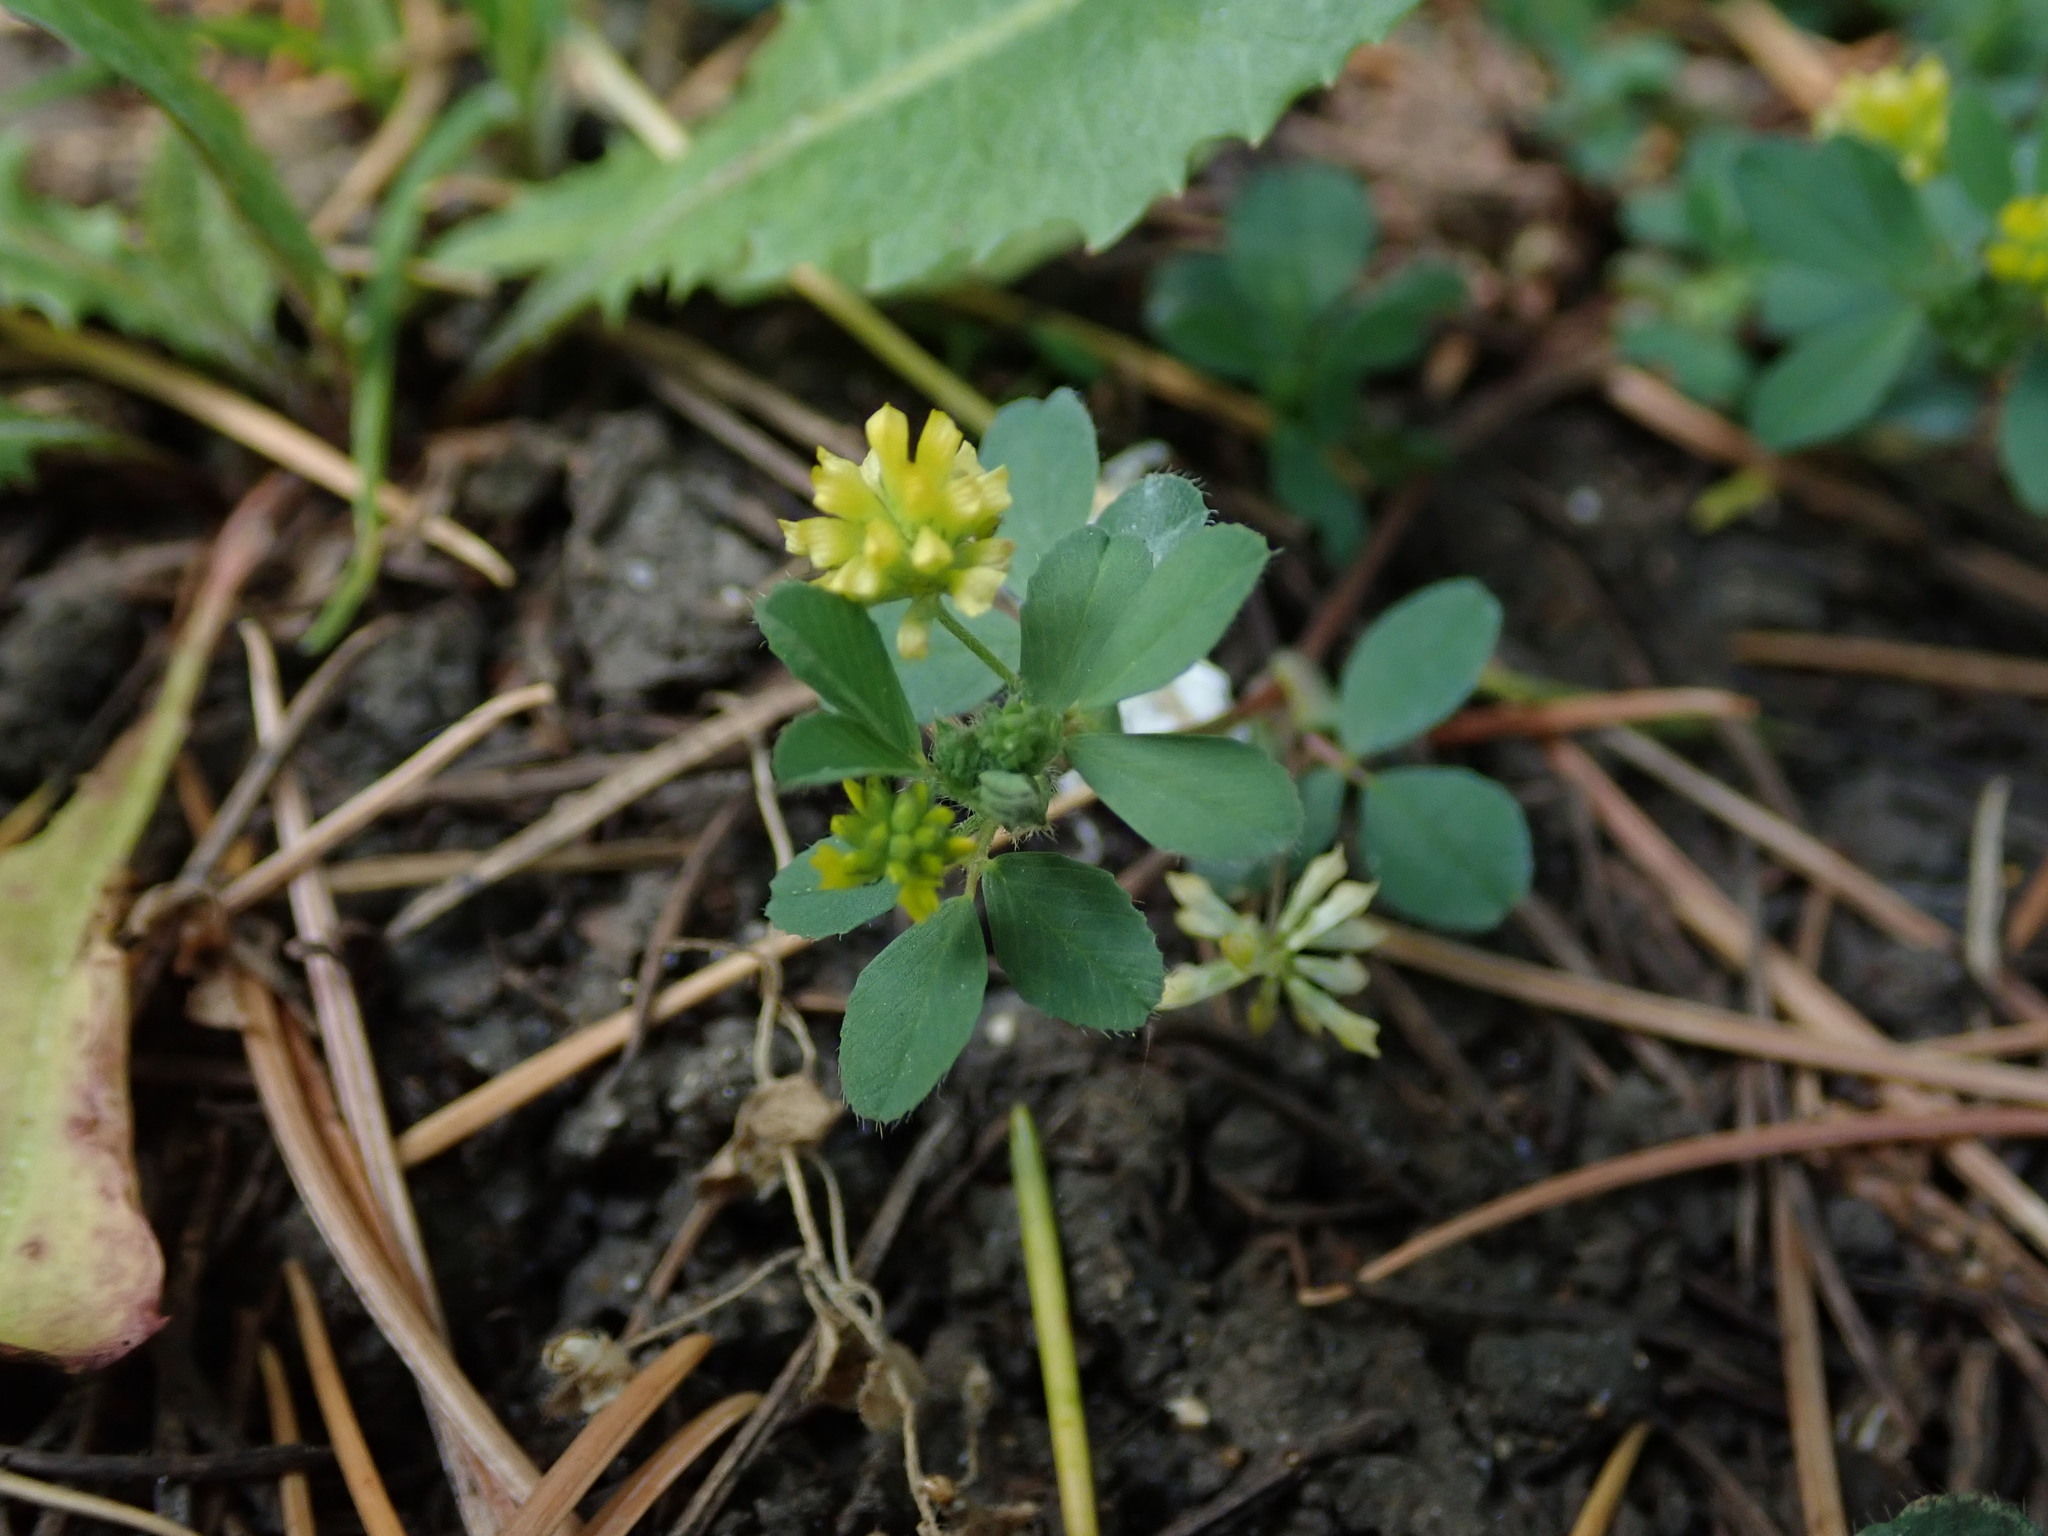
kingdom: Plantae
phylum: Tracheophyta
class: Magnoliopsida
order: Fabales
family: Fabaceae
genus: Trifolium
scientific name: Trifolium dubium
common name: Suckling clover
